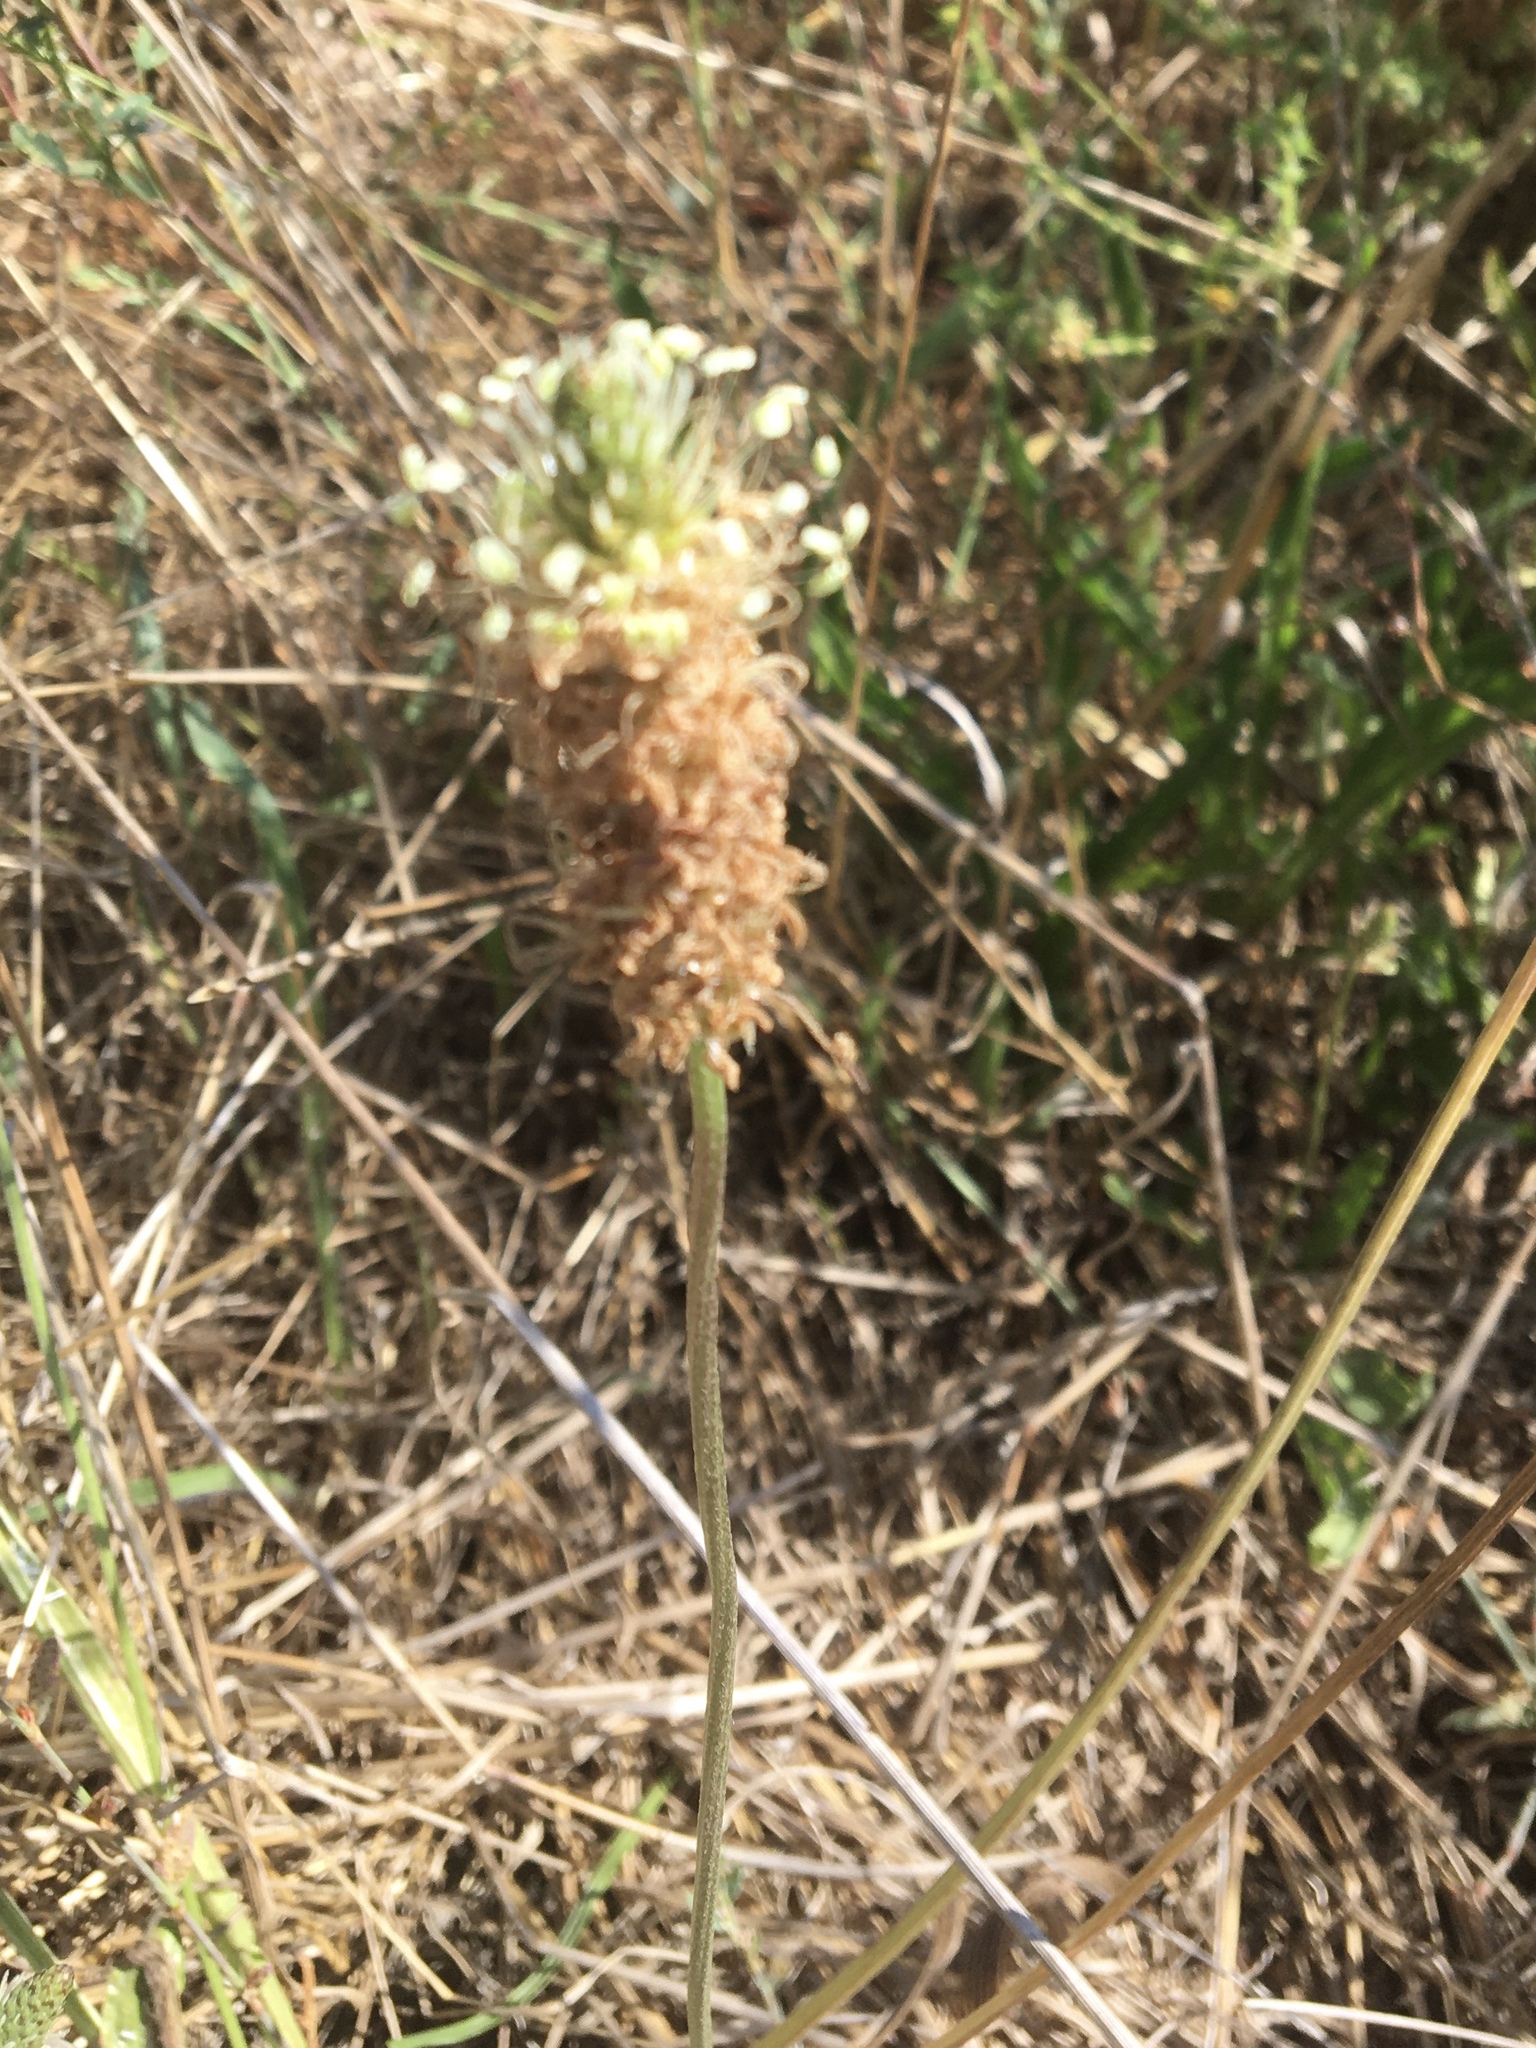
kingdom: Plantae
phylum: Tracheophyta
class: Magnoliopsida
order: Lamiales
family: Plantaginaceae
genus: Plantago
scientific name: Plantago lanceolata
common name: Ribwort plantain
